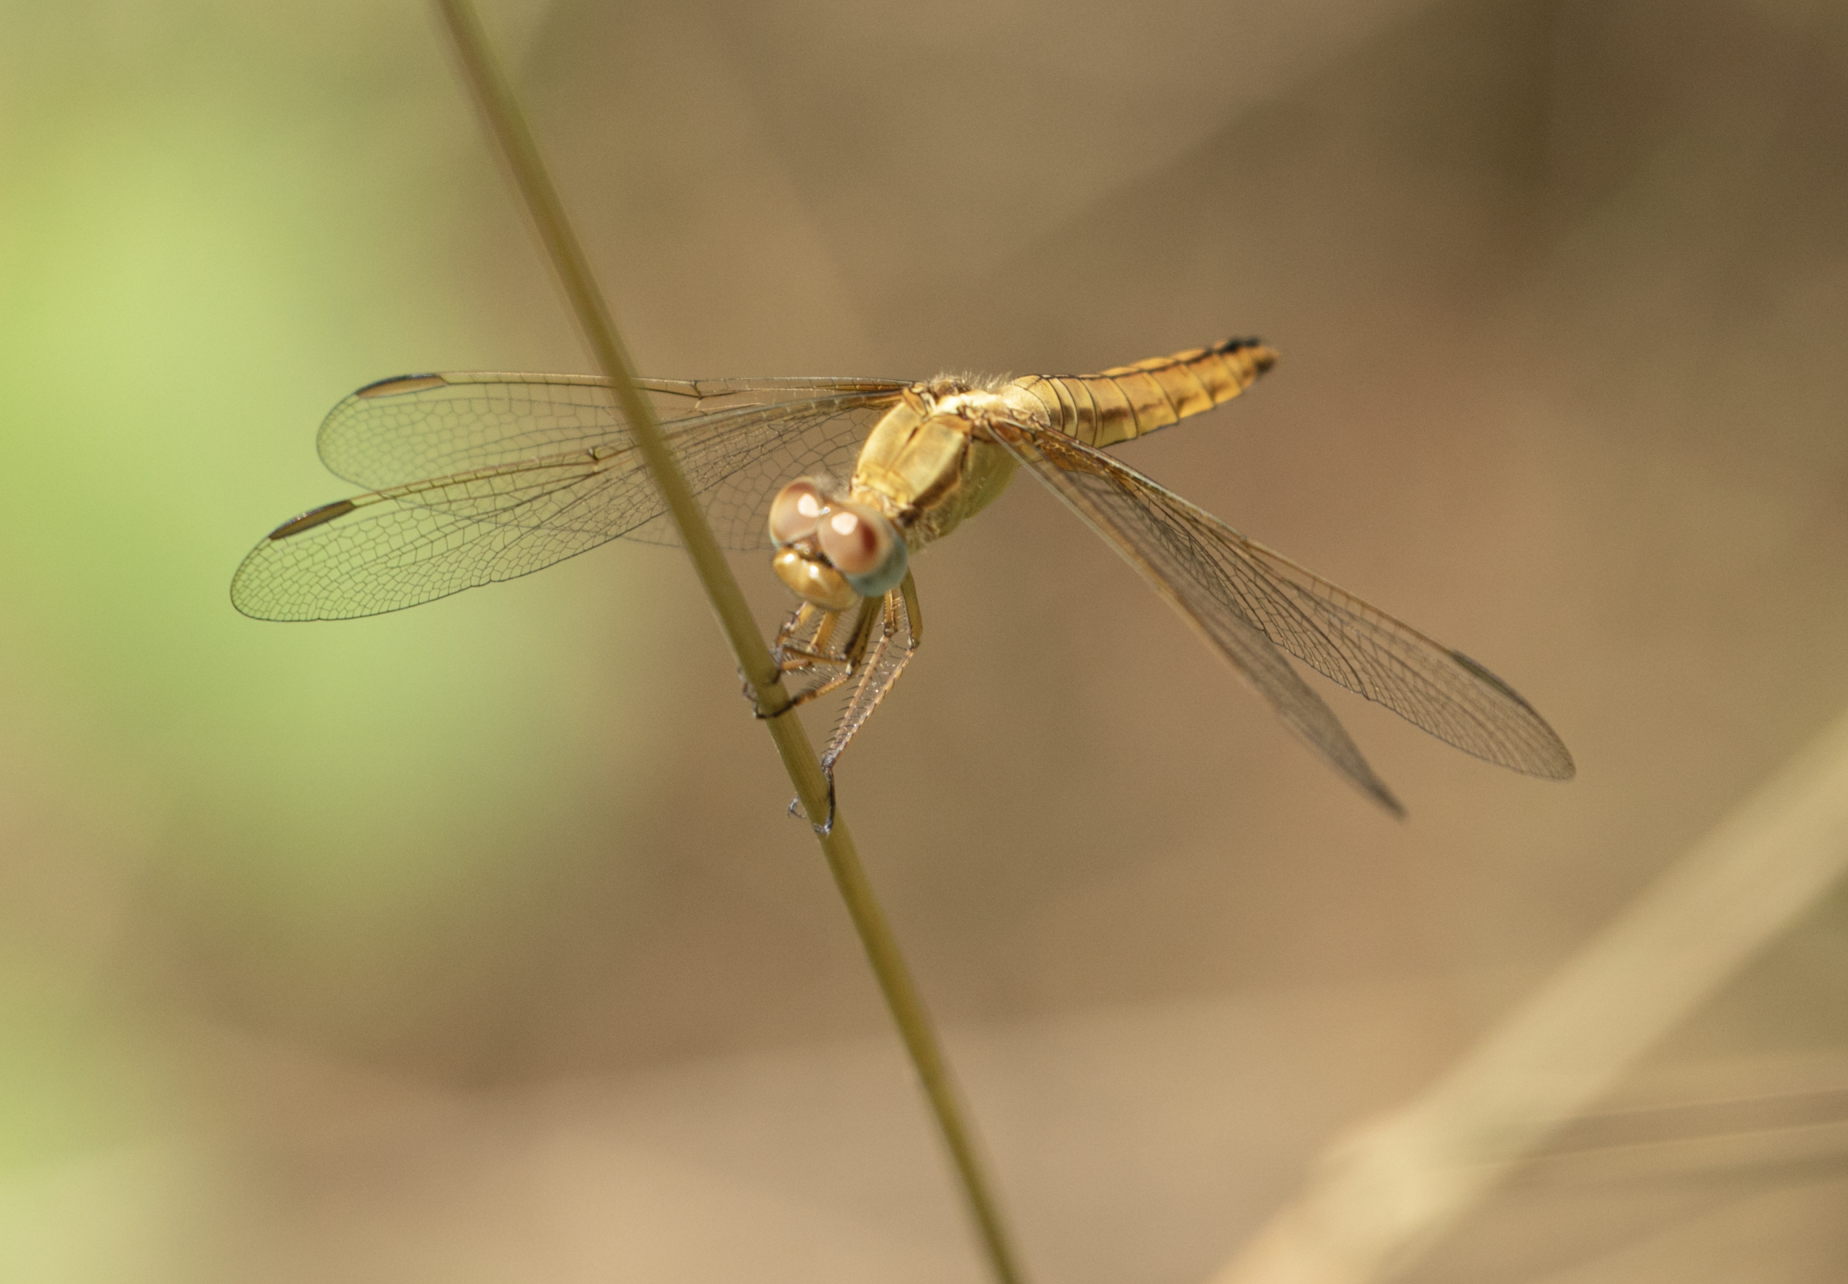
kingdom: Animalia
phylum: Arthropoda
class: Insecta
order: Odonata
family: Libellulidae
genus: Crocothemis
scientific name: Crocothemis erythraea
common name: Scarlet dragonfly
